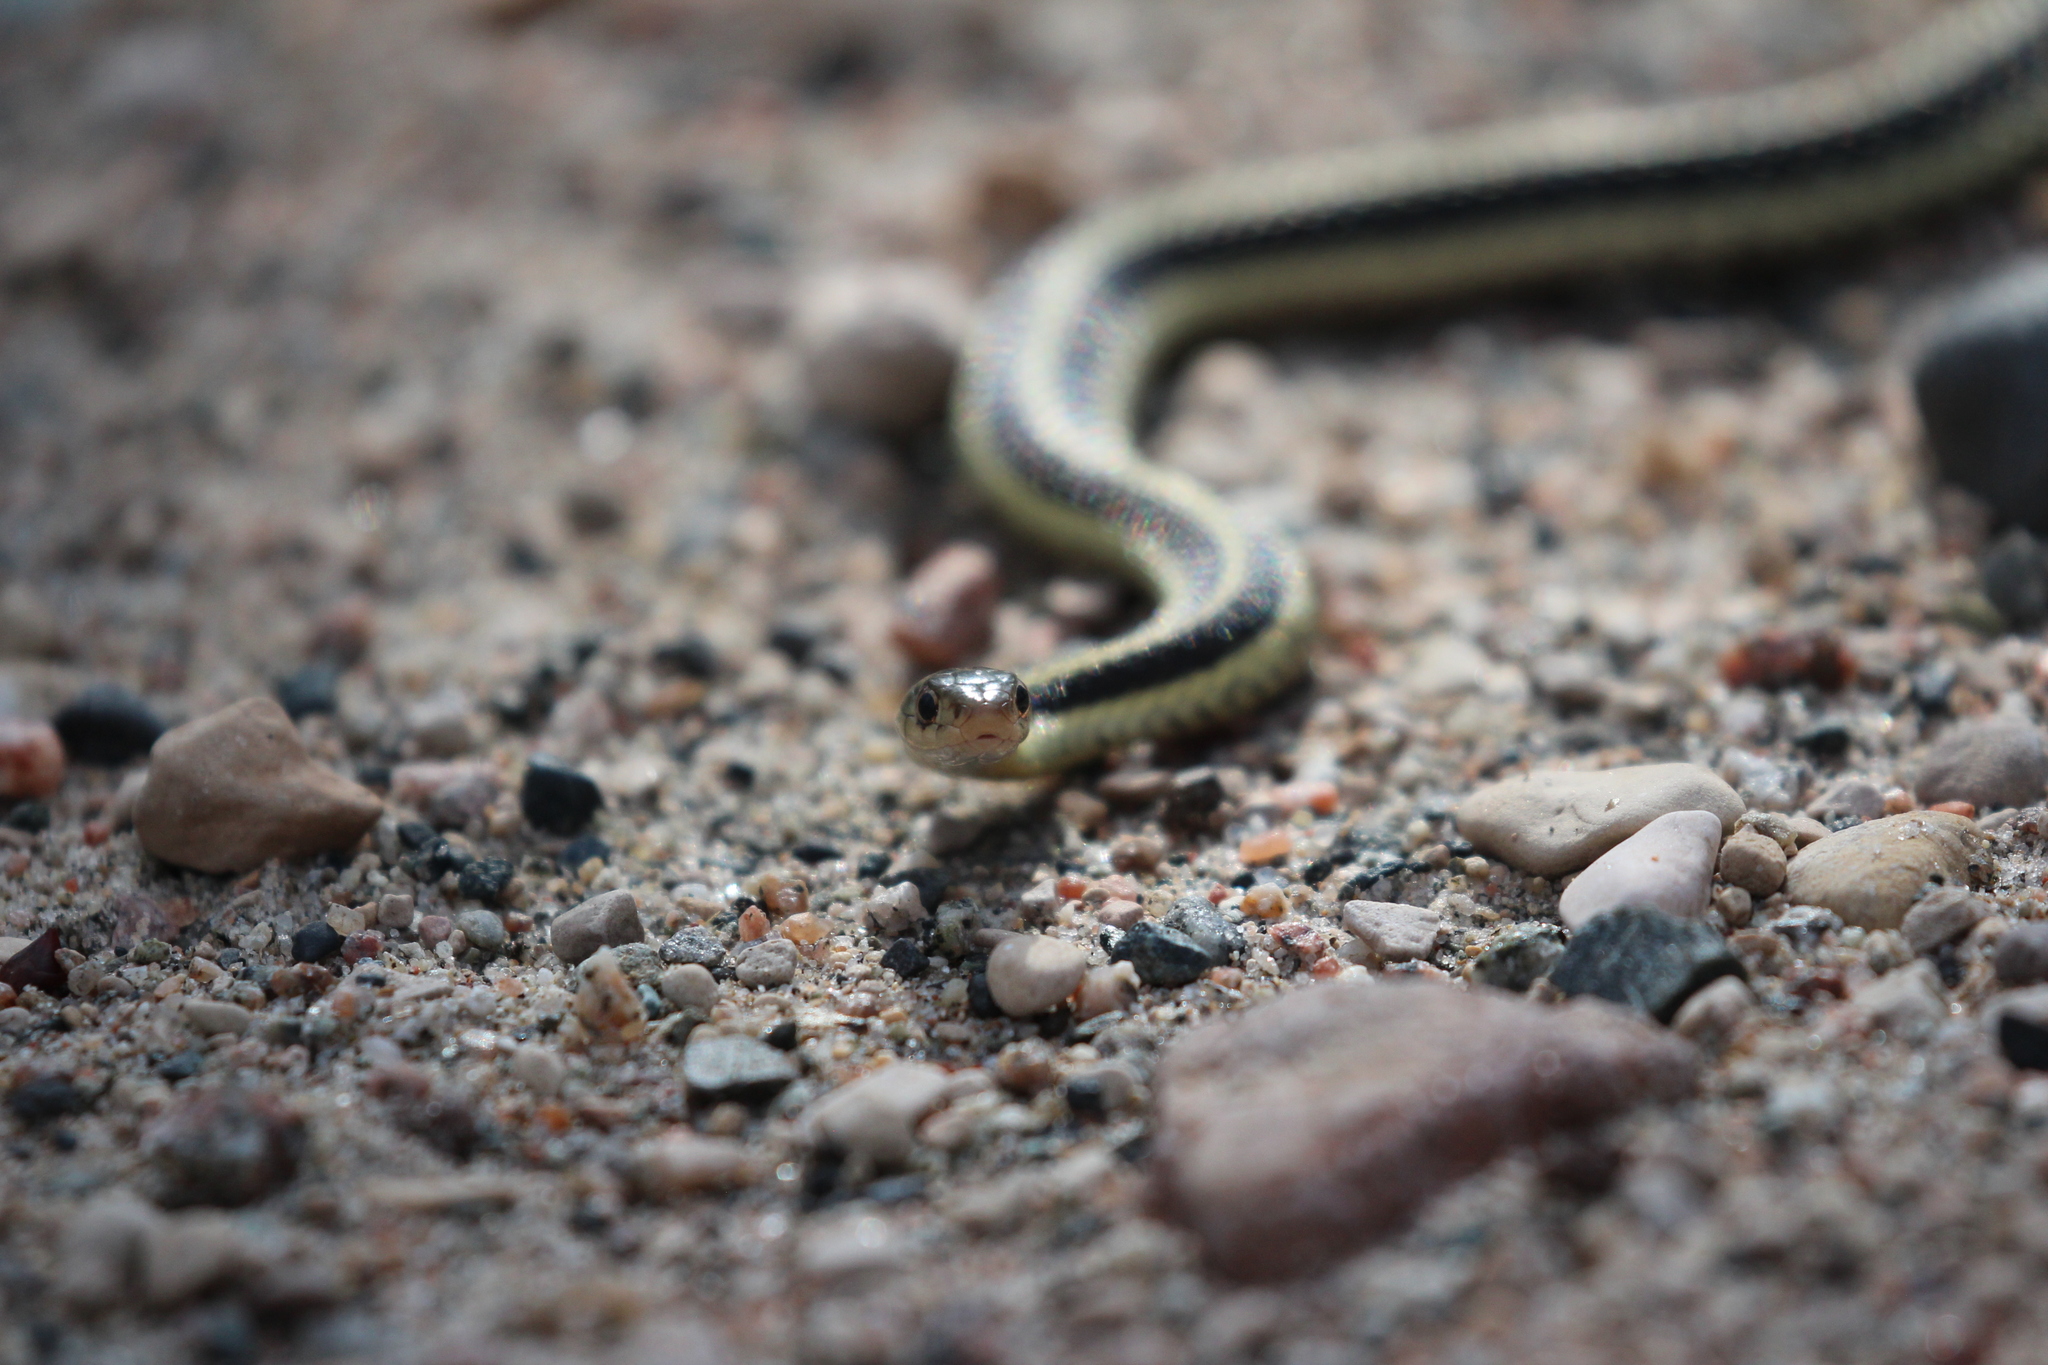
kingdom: Animalia
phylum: Chordata
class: Squamata
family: Colubridae
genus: Thamnophis
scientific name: Thamnophis sirtalis
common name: Common garter snake
